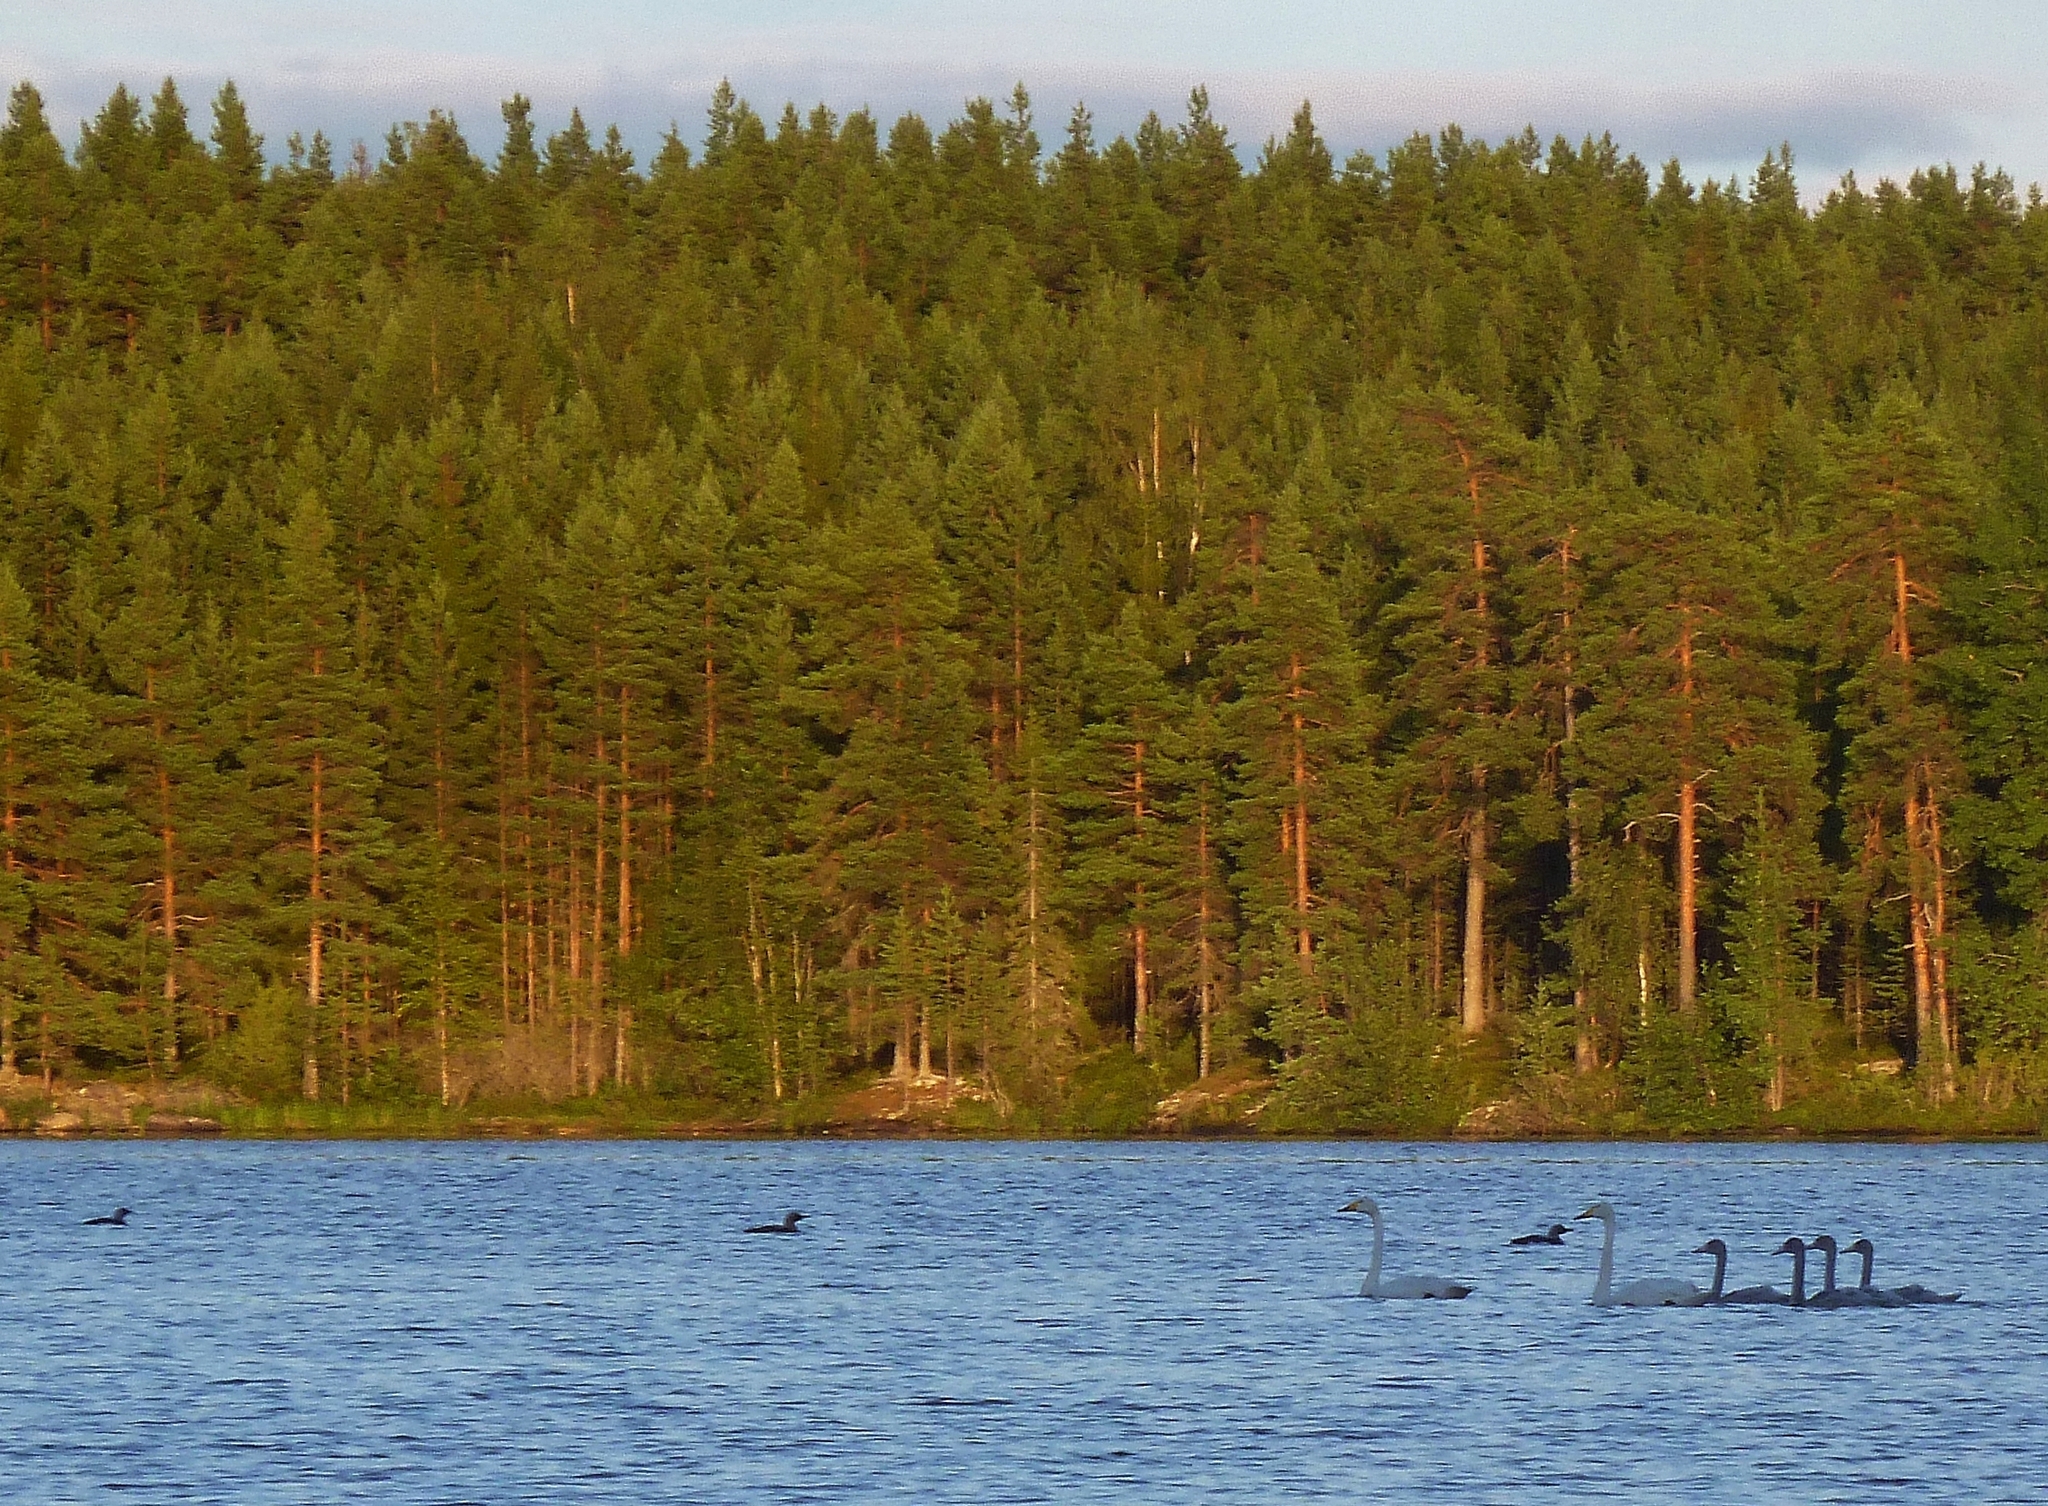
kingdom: Animalia
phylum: Chordata
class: Aves
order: Gaviiformes
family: Gaviidae
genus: Gavia
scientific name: Gavia arctica
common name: Black-throated loon
